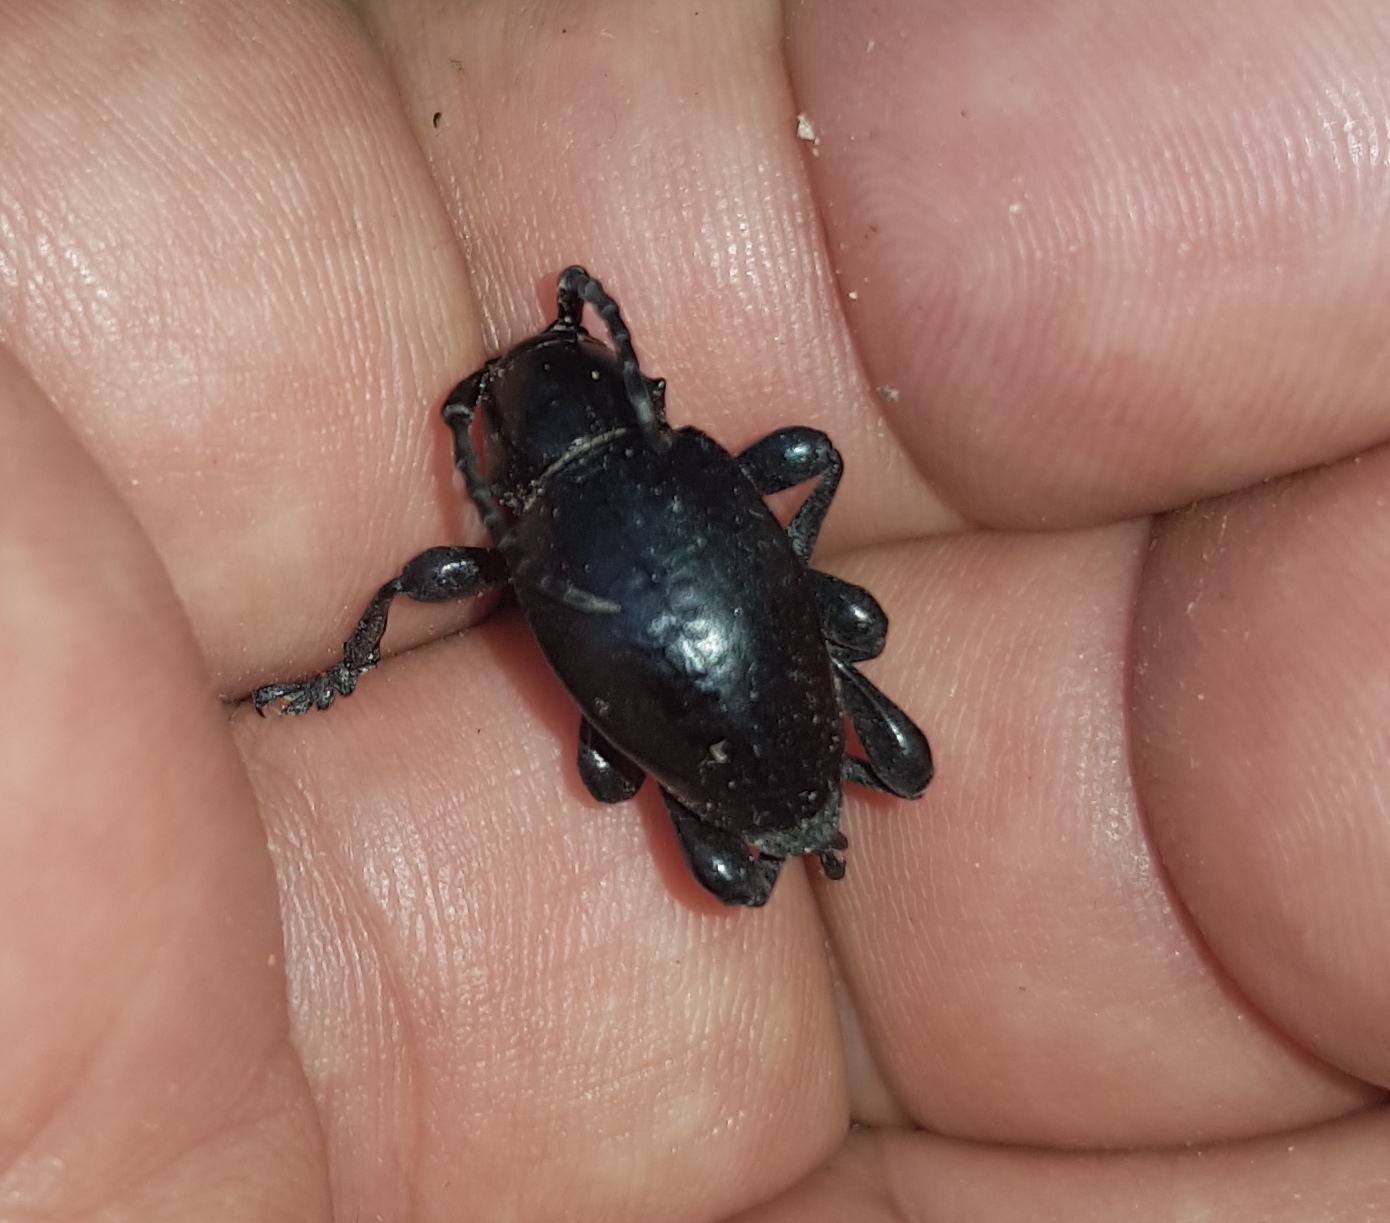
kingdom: Animalia
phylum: Arthropoda
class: Insecta
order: Coleoptera
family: Cerambycidae
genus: Moneilema
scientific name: Moneilema albopictum
